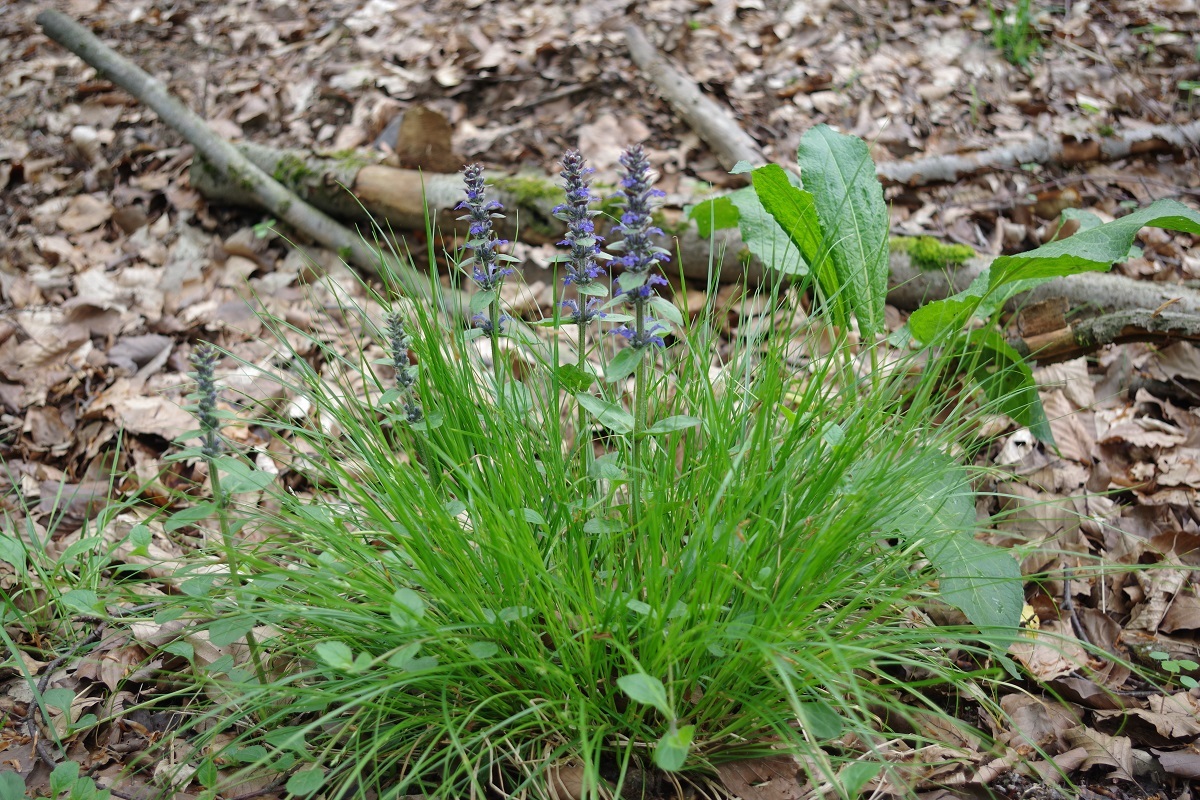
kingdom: Plantae
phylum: Tracheophyta
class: Magnoliopsida
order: Lamiales
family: Lamiaceae
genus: Ajuga
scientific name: Ajuga reptans
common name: Bugle
